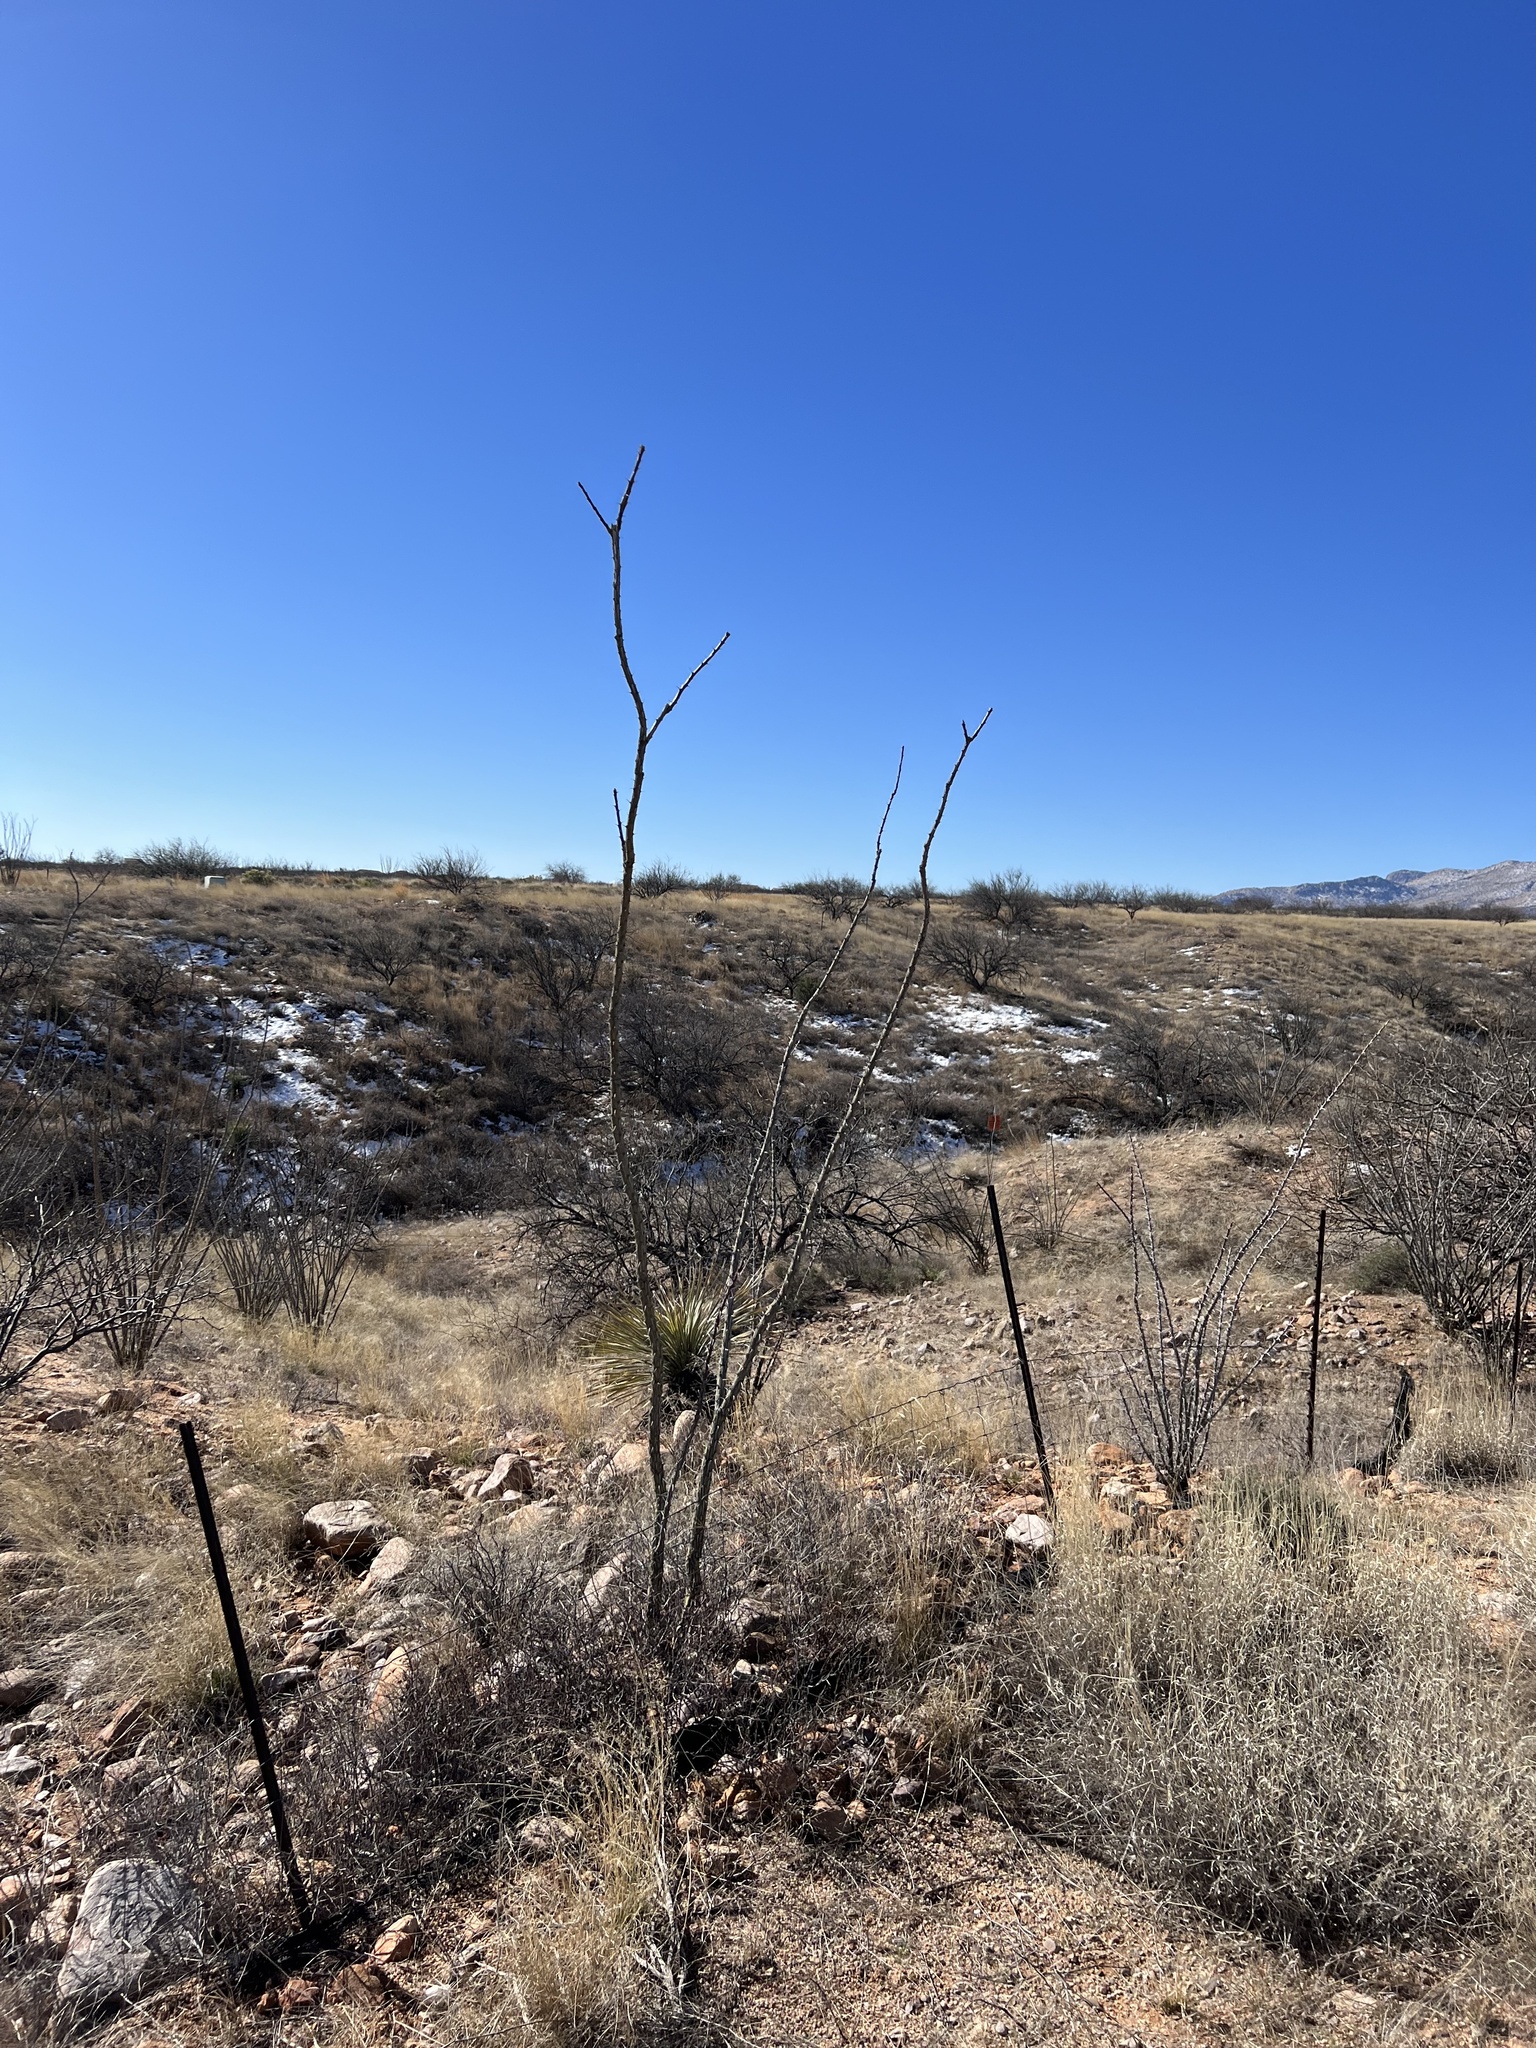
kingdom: Plantae
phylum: Tracheophyta
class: Magnoliopsida
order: Ericales
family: Fouquieriaceae
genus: Fouquieria
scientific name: Fouquieria splendens
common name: Vine-cactus
